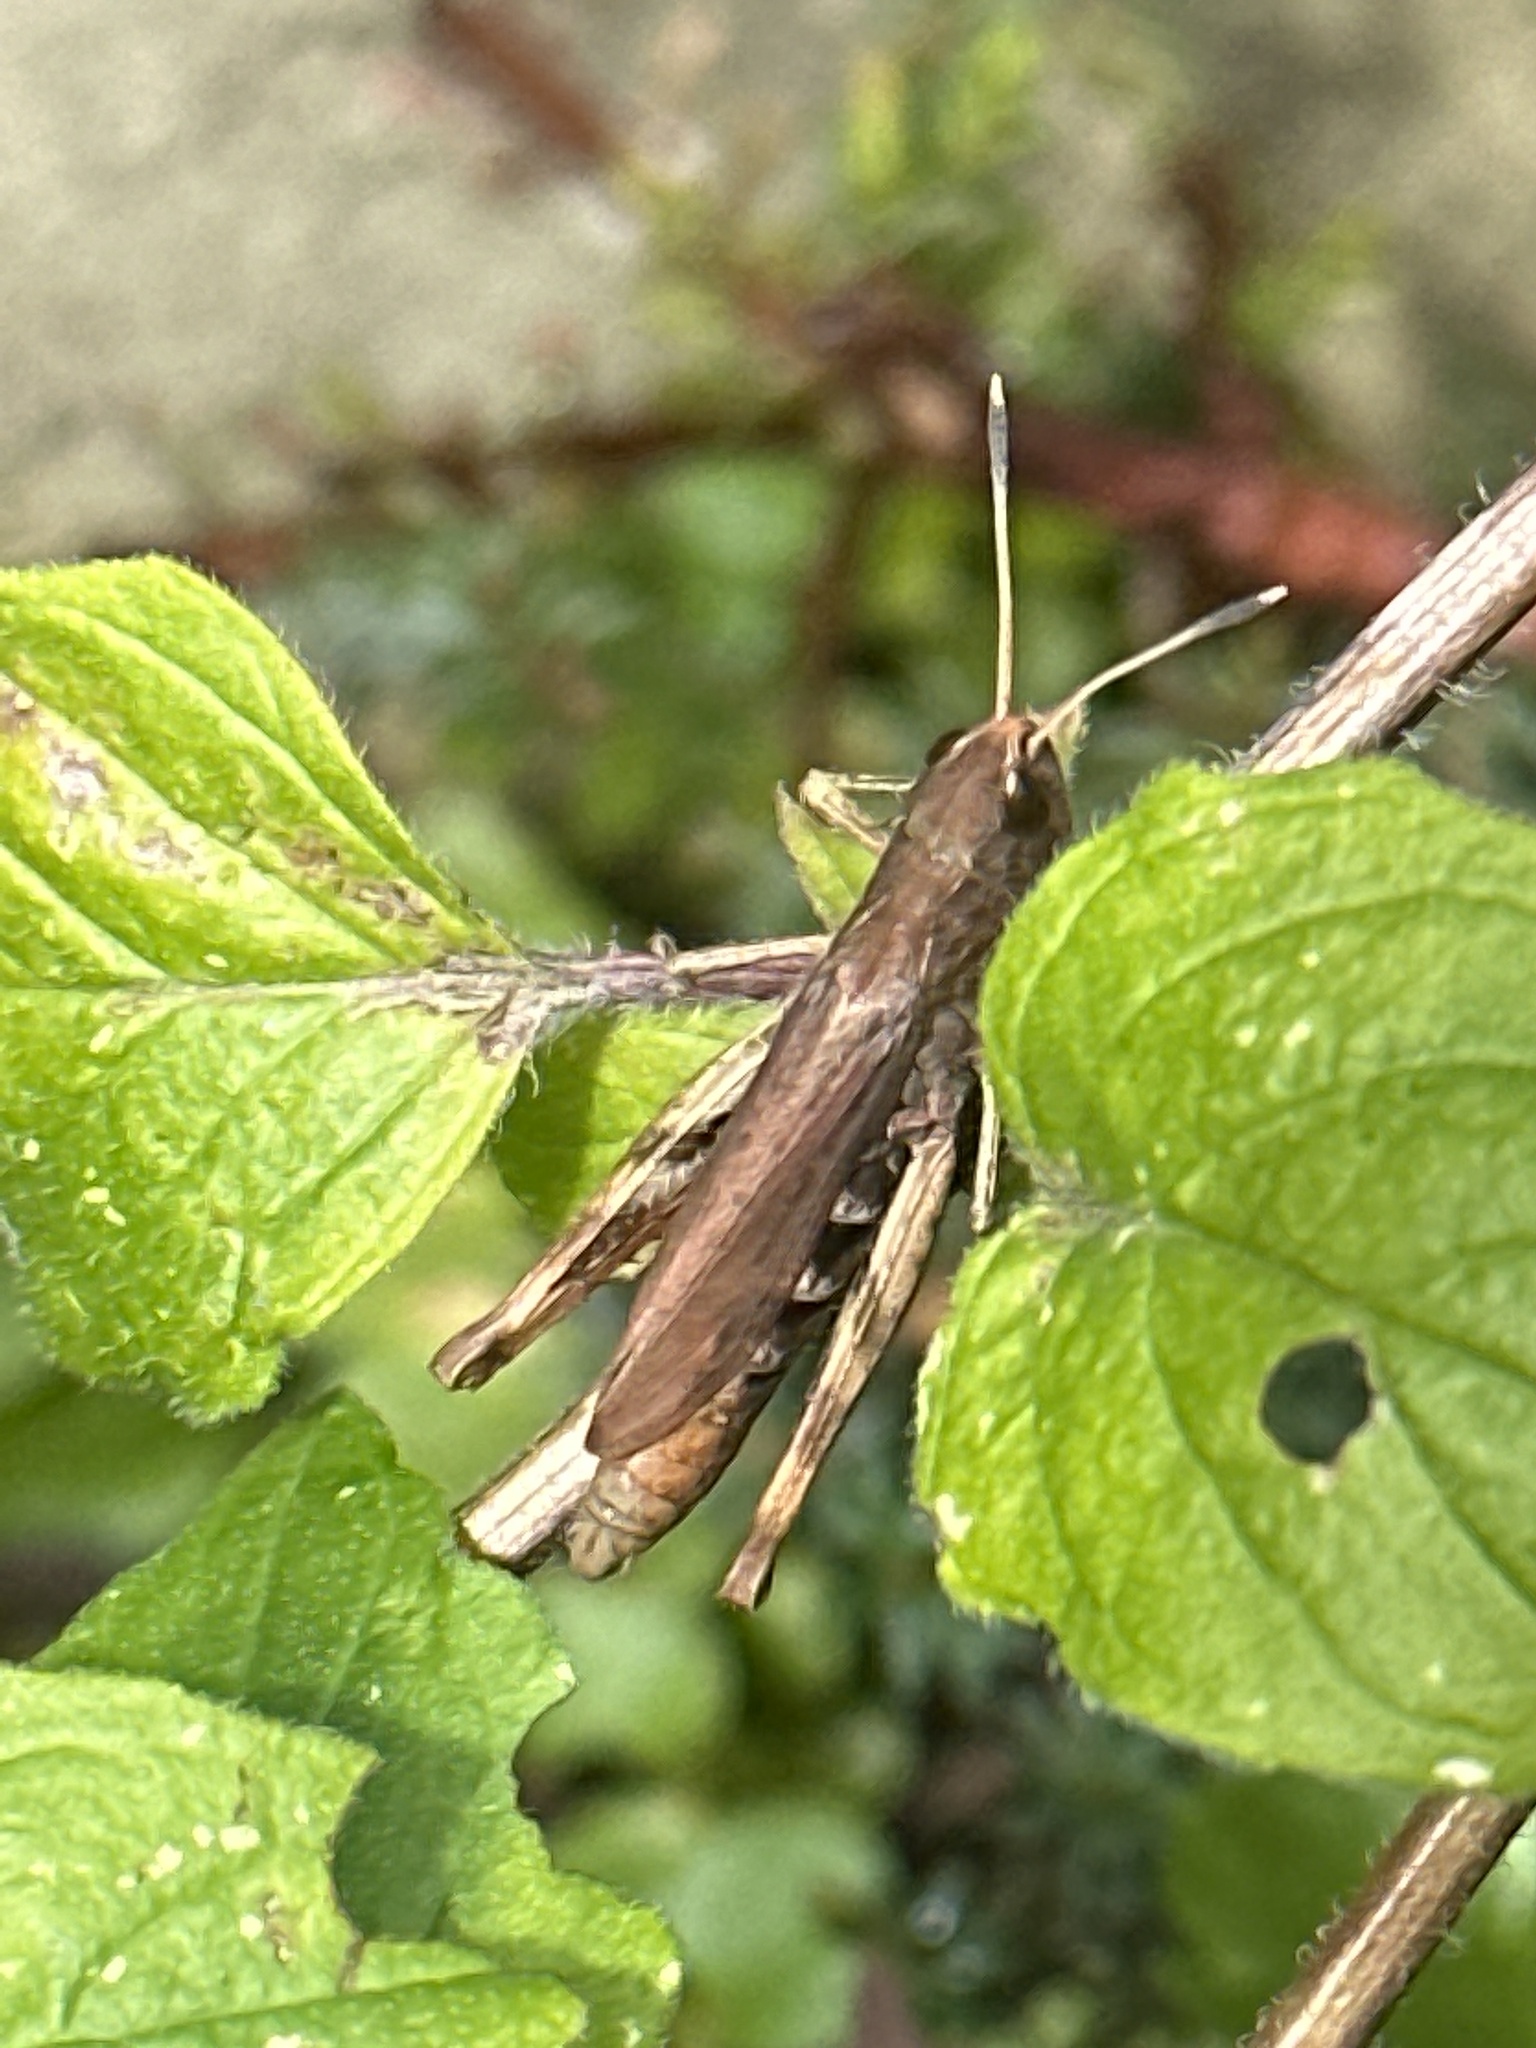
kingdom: Animalia
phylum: Arthropoda
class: Insecta
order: Orthoptera
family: Acrididae
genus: Gomphocerippus
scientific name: Gomphocerippus rufus
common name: Rufous grasshopper
